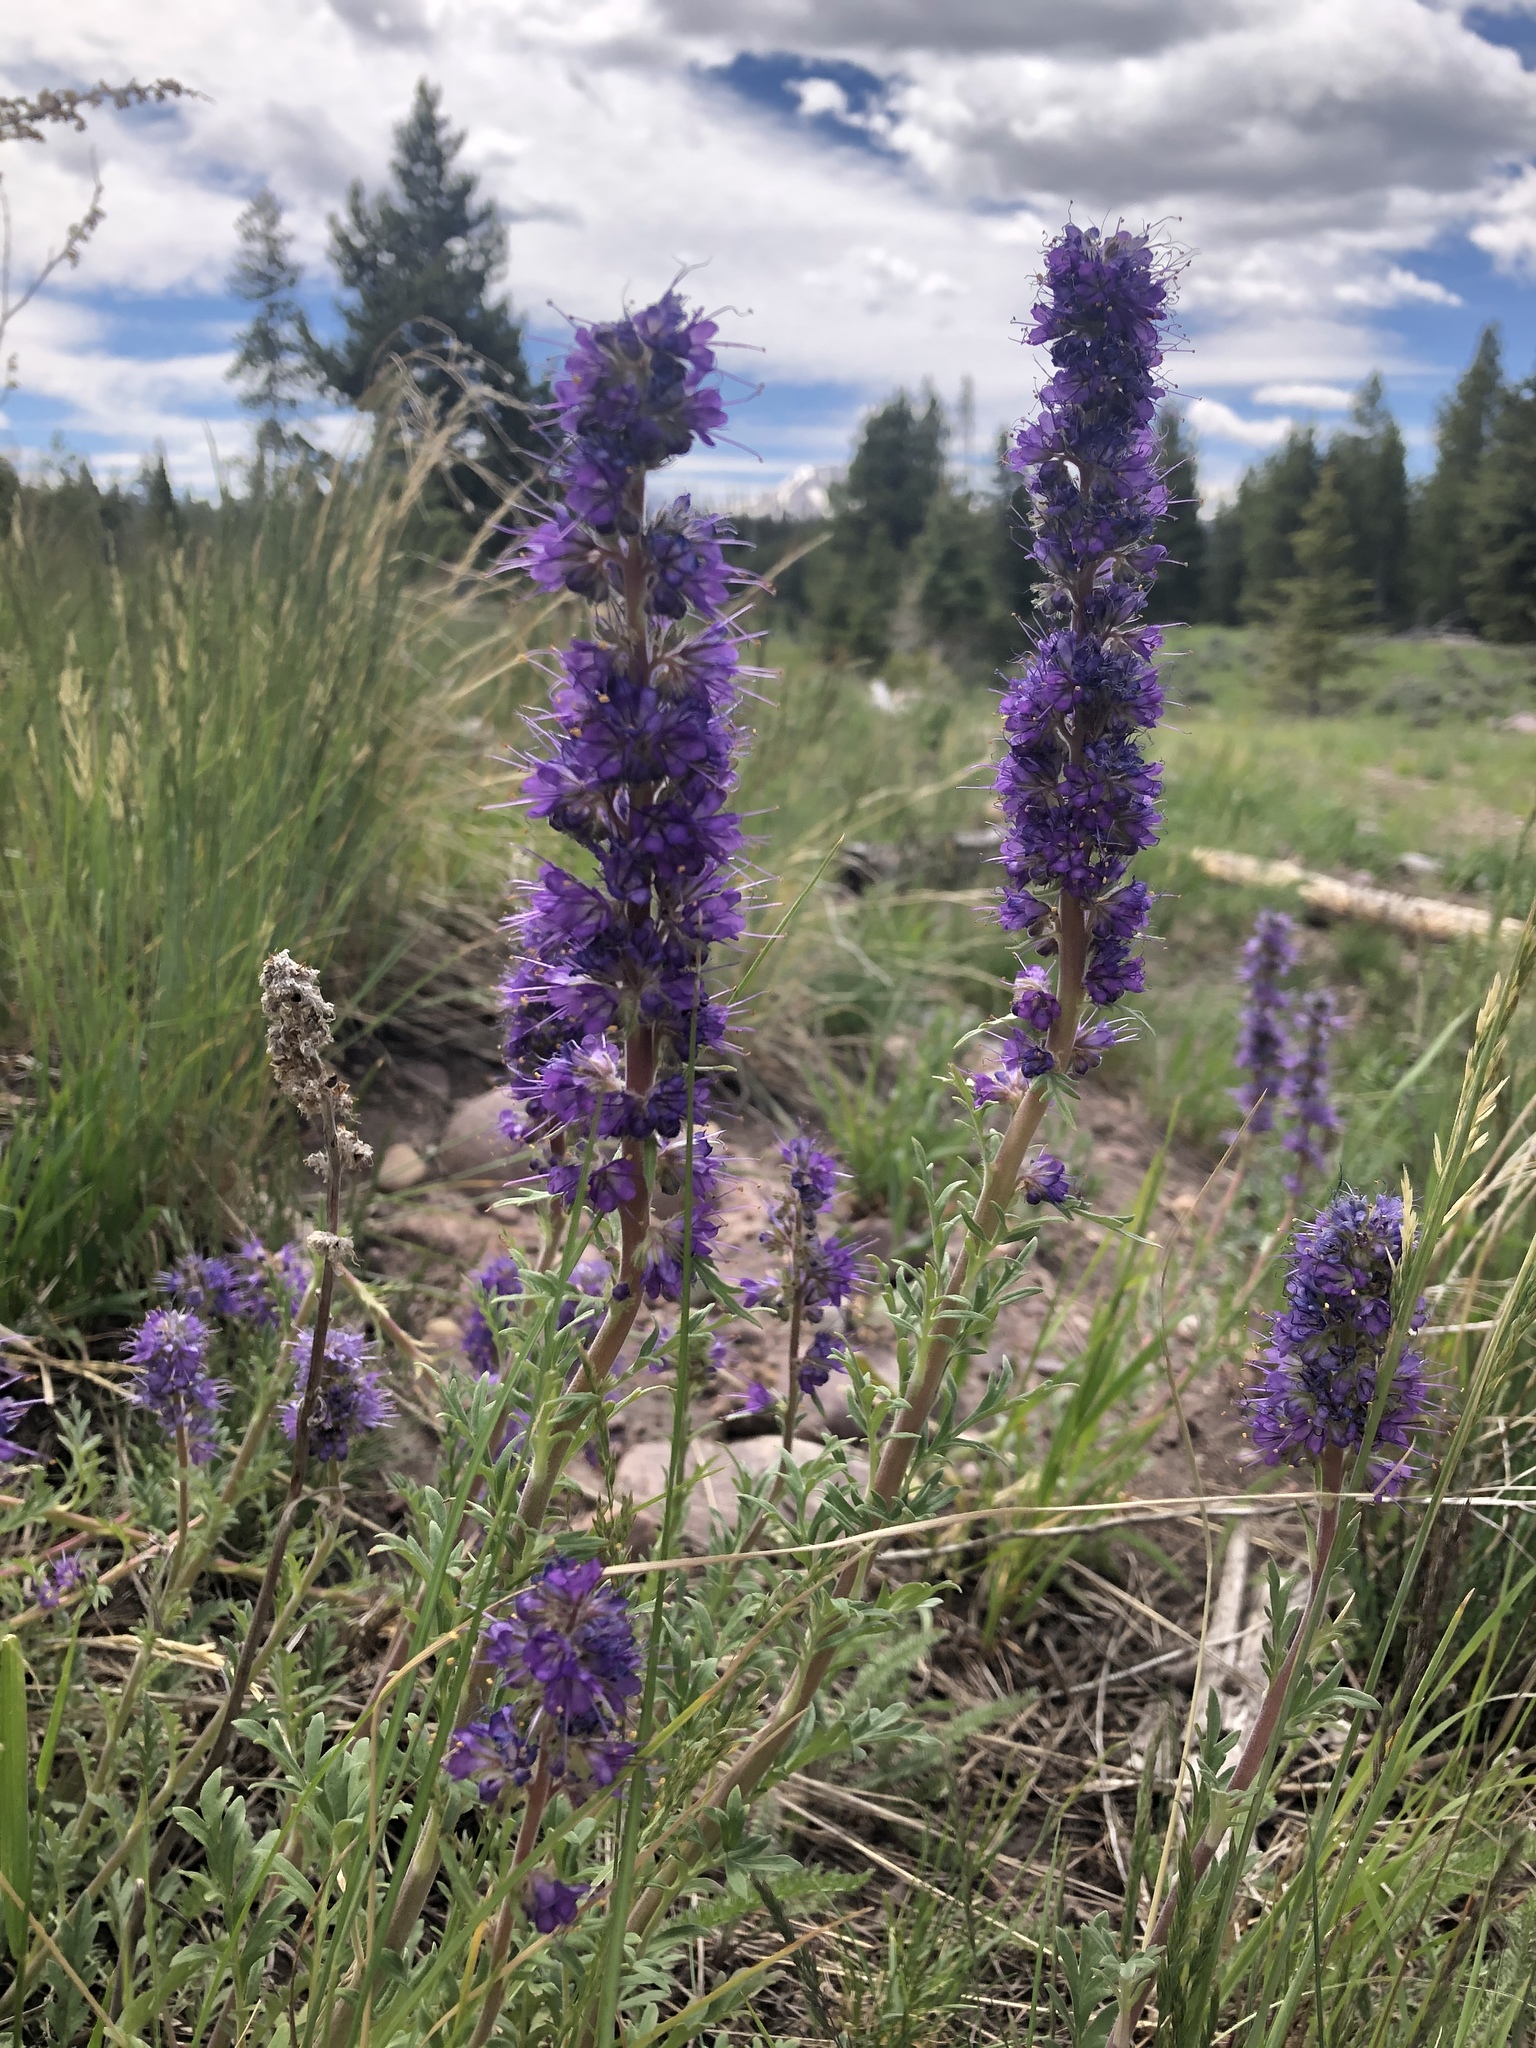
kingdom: Plantae
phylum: Tracheophyta
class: Magnoliopsida
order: Boraginales
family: Hydrophyllaceae
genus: Phacelia
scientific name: Phacelia sericea
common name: Silky phacelia
